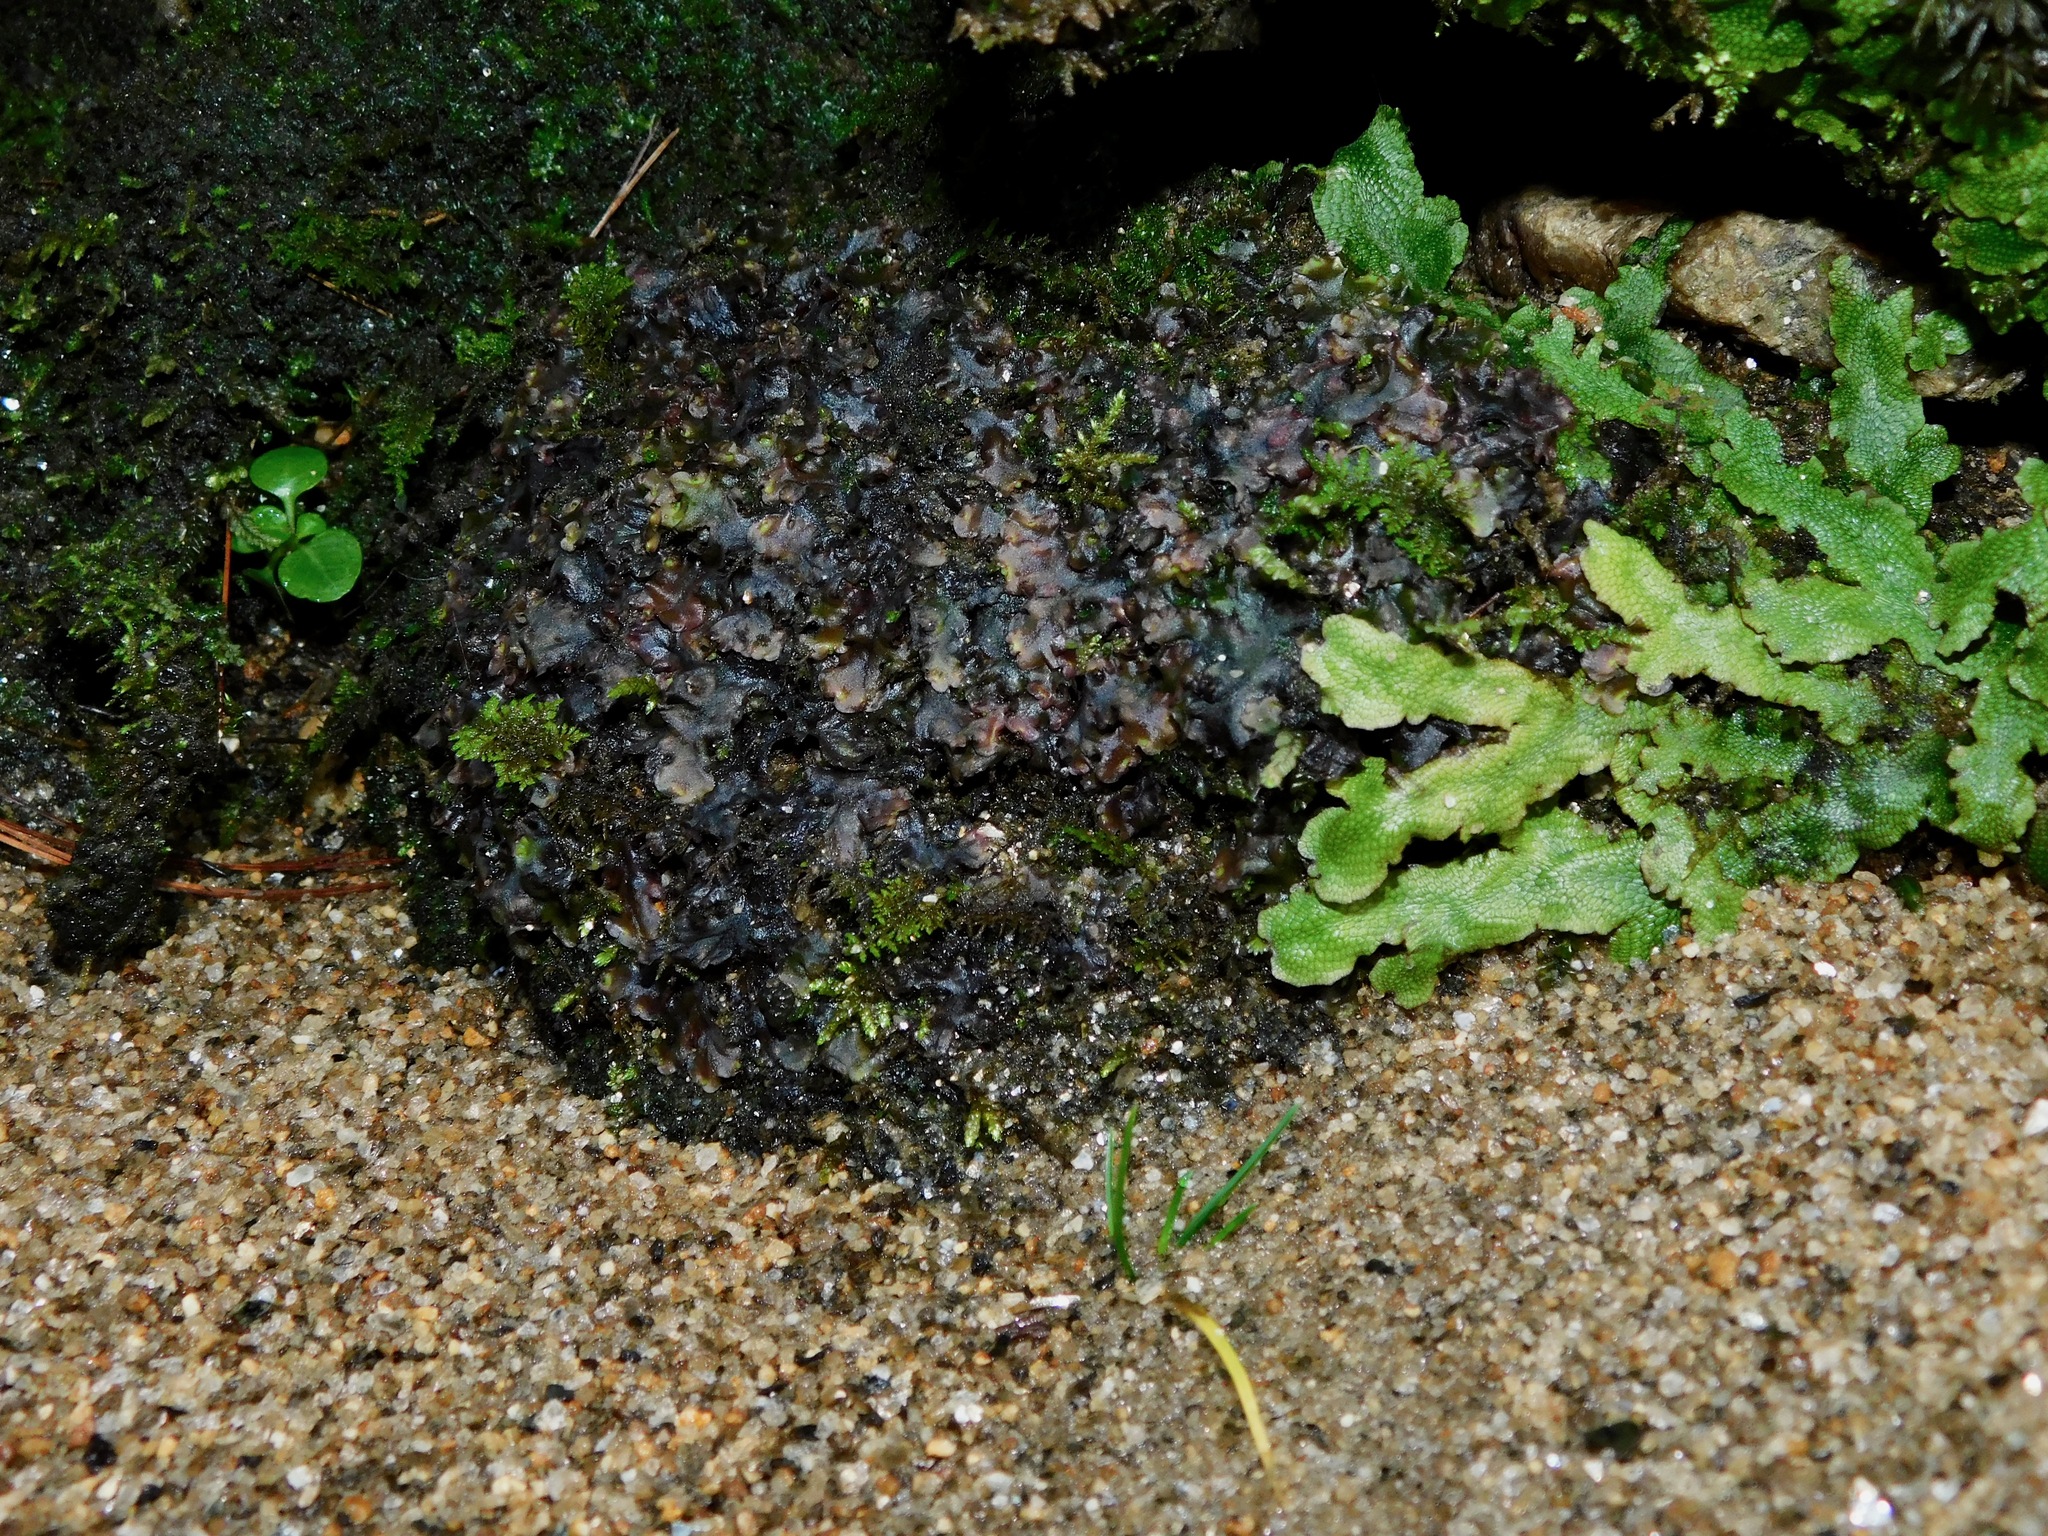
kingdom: Plantae
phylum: Marchantiophyta
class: Jungermanniopsida
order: Pelliales
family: Pelliaceae
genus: Pellia
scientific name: Pellia neesiana
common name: Nees  pellia
